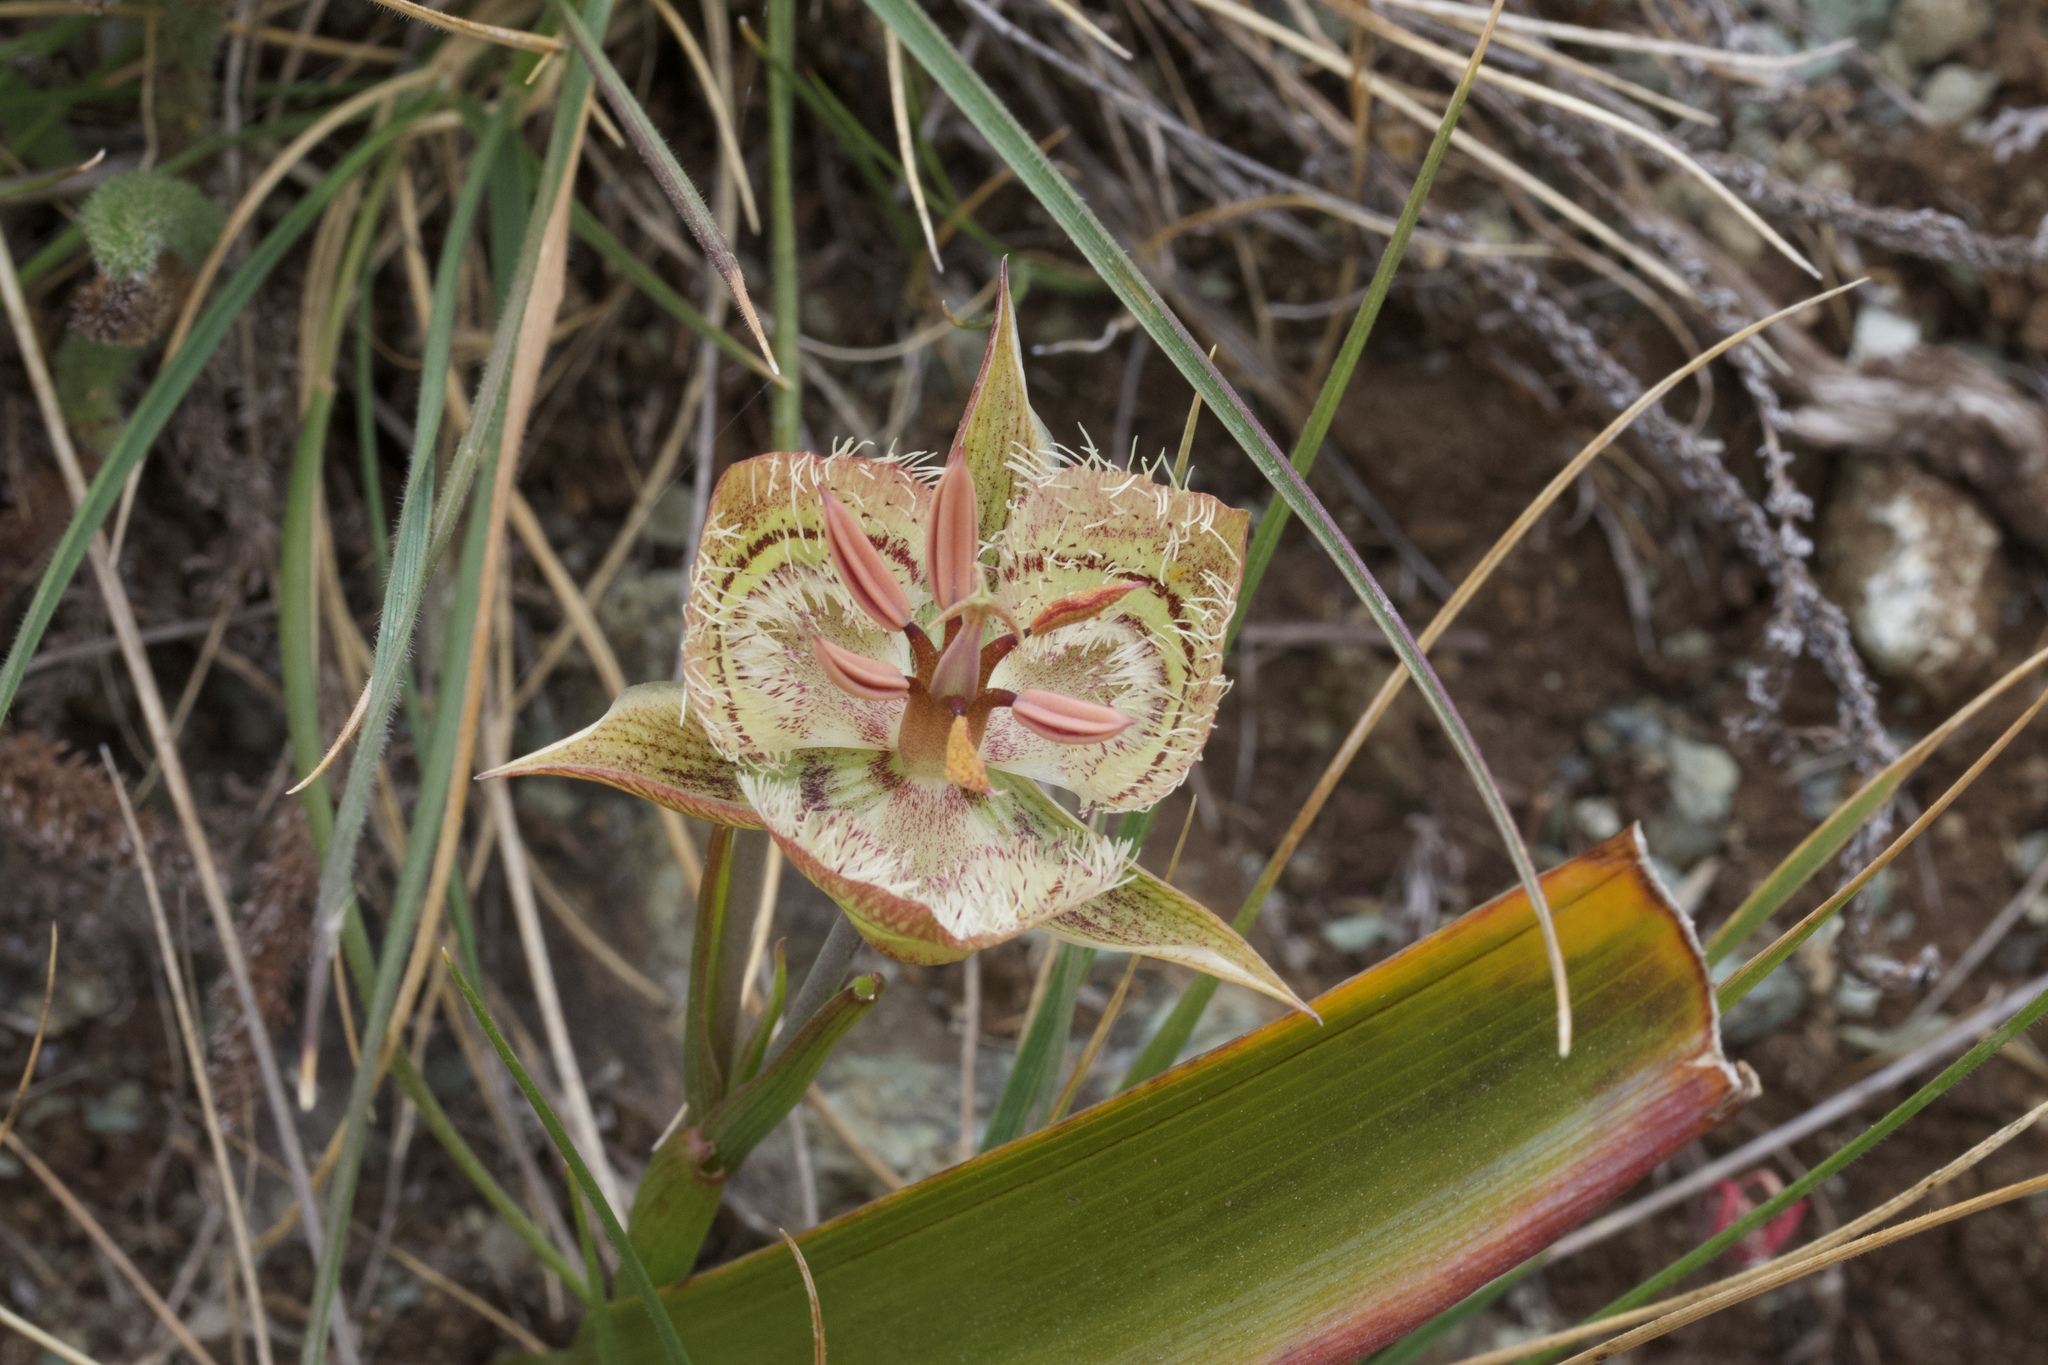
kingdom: Plantae
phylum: Tracheophyta
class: Liliopsida
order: Liliales
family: Liliaceae
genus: Calochortus
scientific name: Calochortus tiburonensis
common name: Tiburon mariposa-lily
